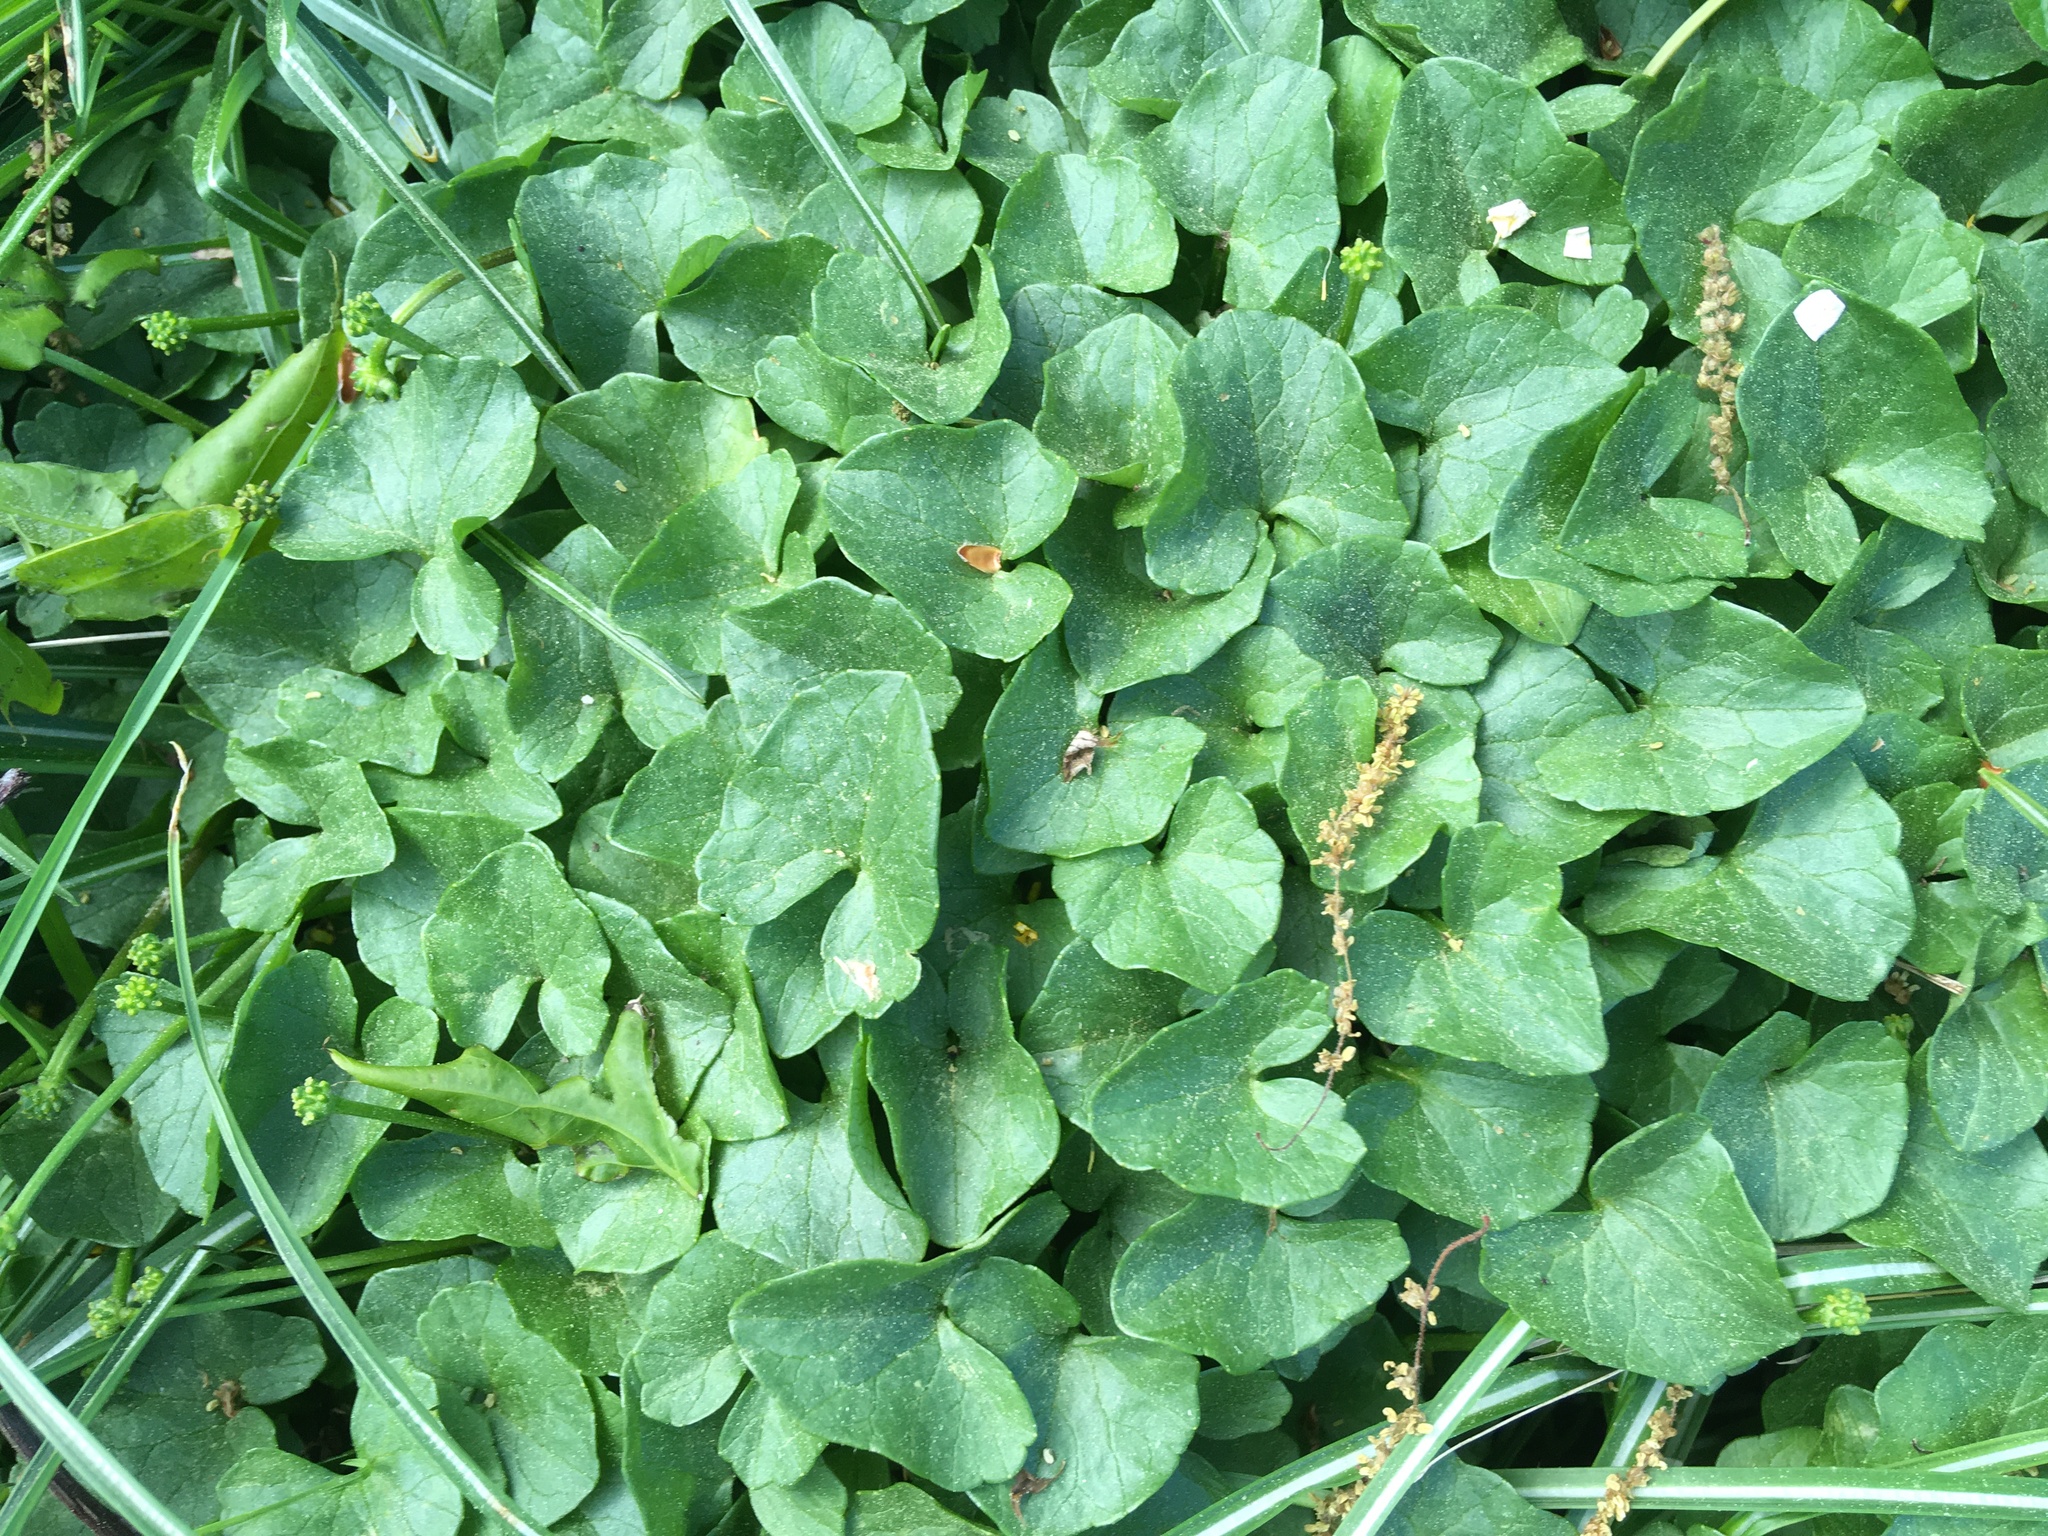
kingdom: Plantae
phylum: Tracheophyta
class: Magnoliopsida
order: Ranunculales
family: Ranunculaceae
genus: Ficaria
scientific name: Ficaria verna
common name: Lesser celandine
